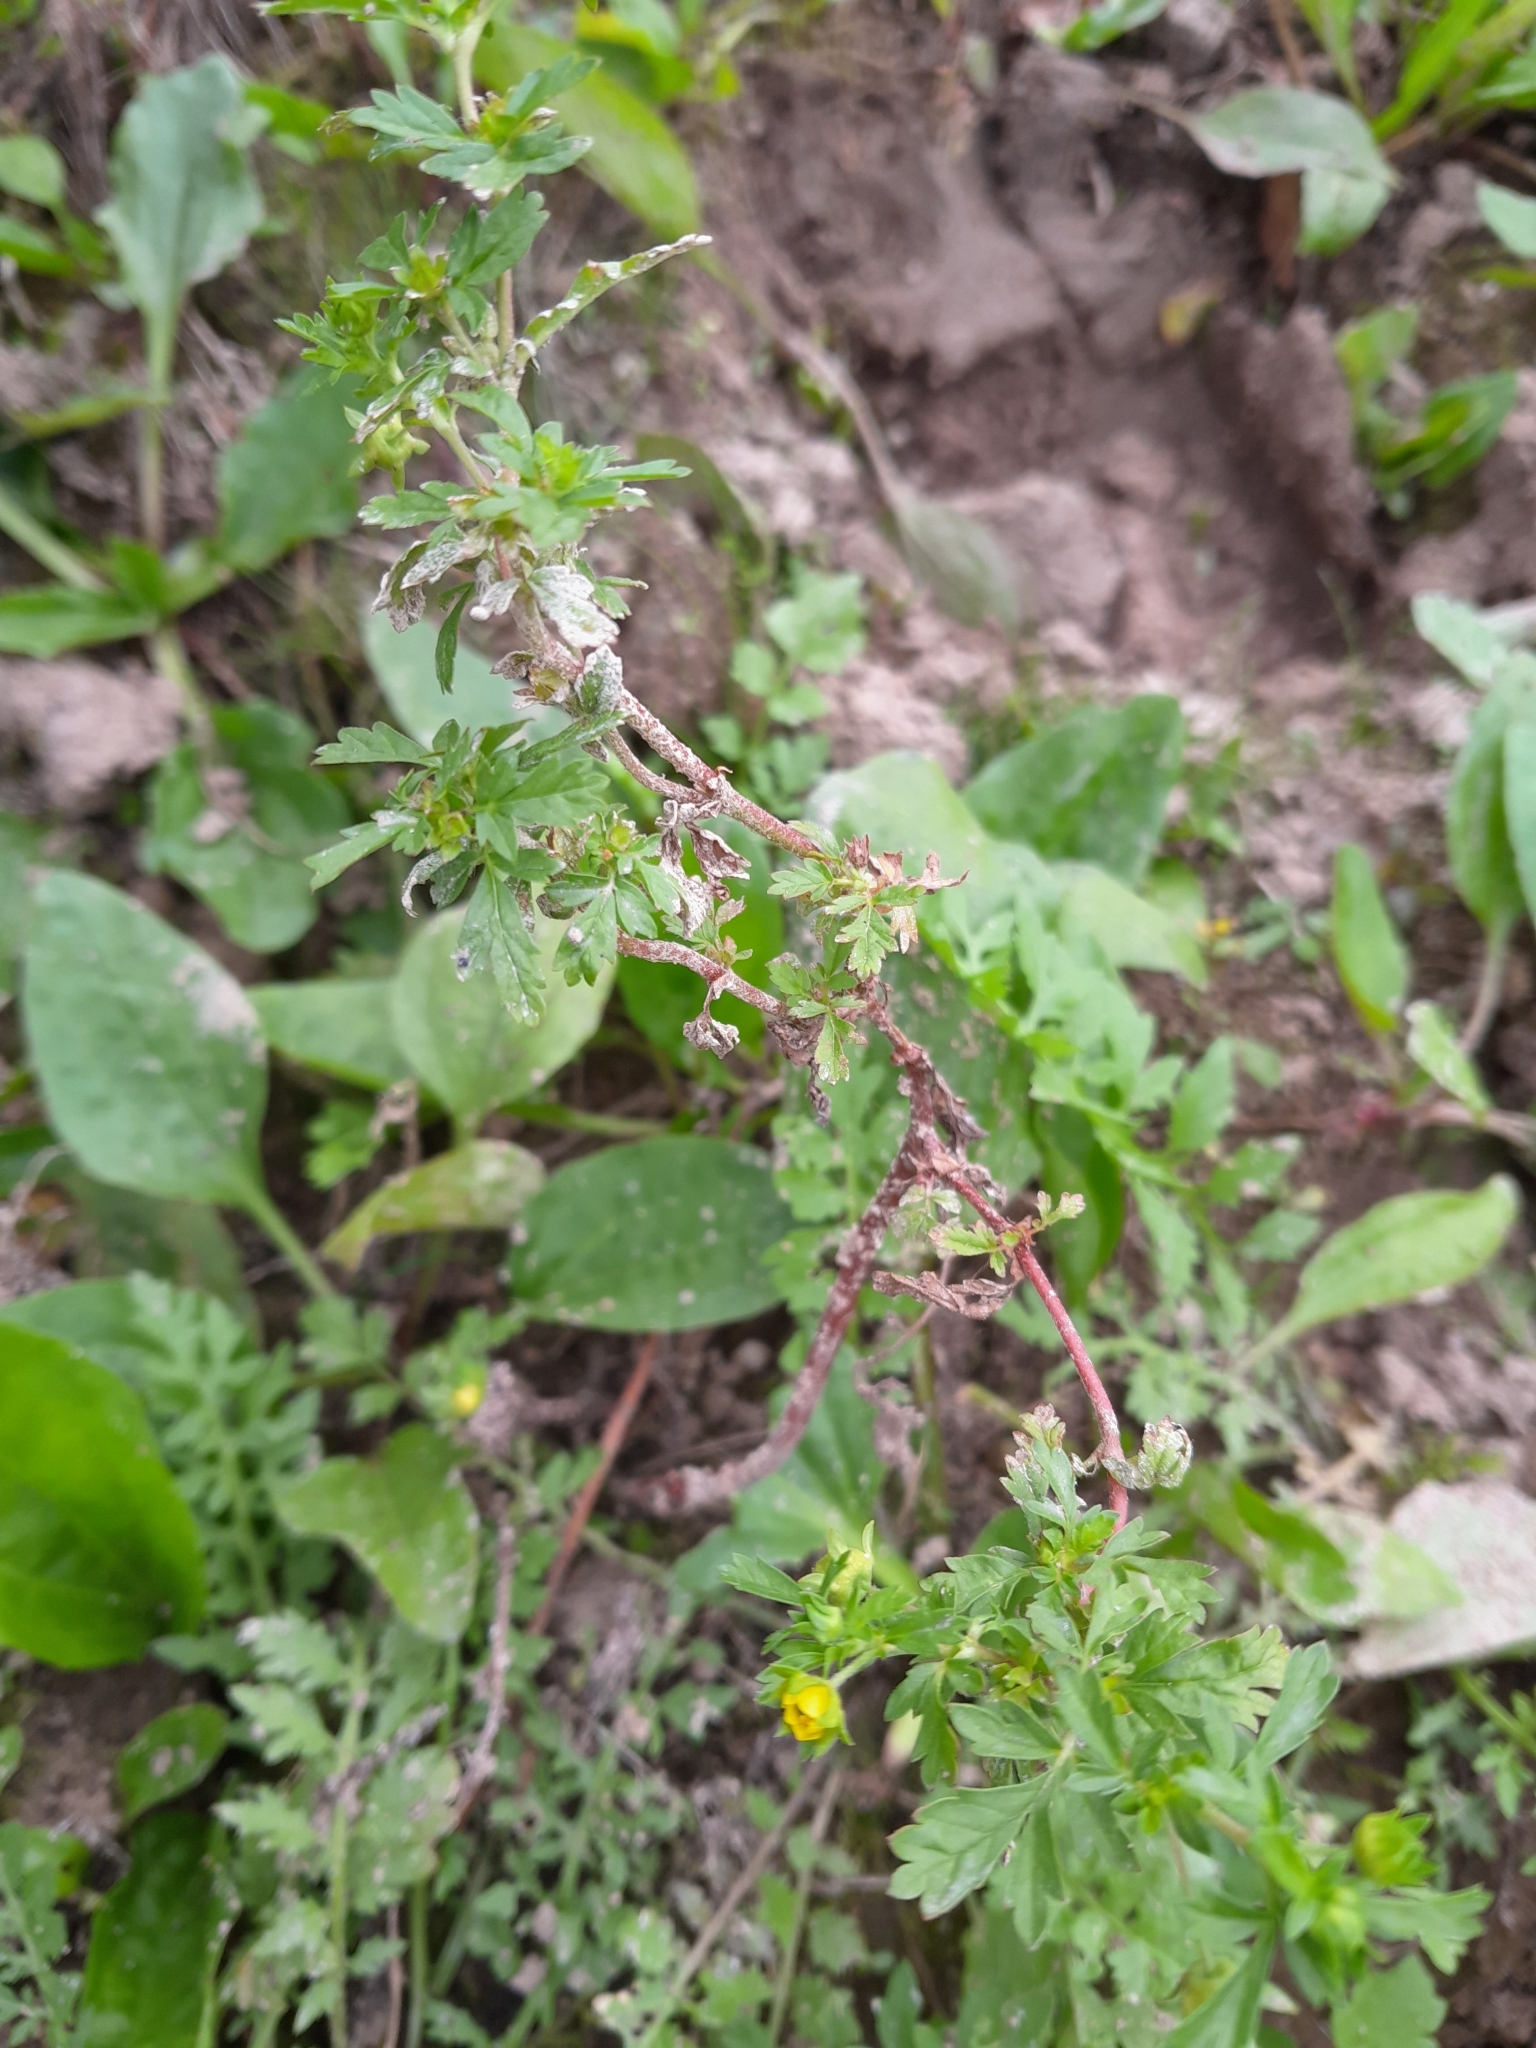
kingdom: Plantae
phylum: Tracheophyta
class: Magnoliopsida
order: Rosales
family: Rosaceae
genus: Potentilla
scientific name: Potentilla supina
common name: Prostrate cinquefoil
